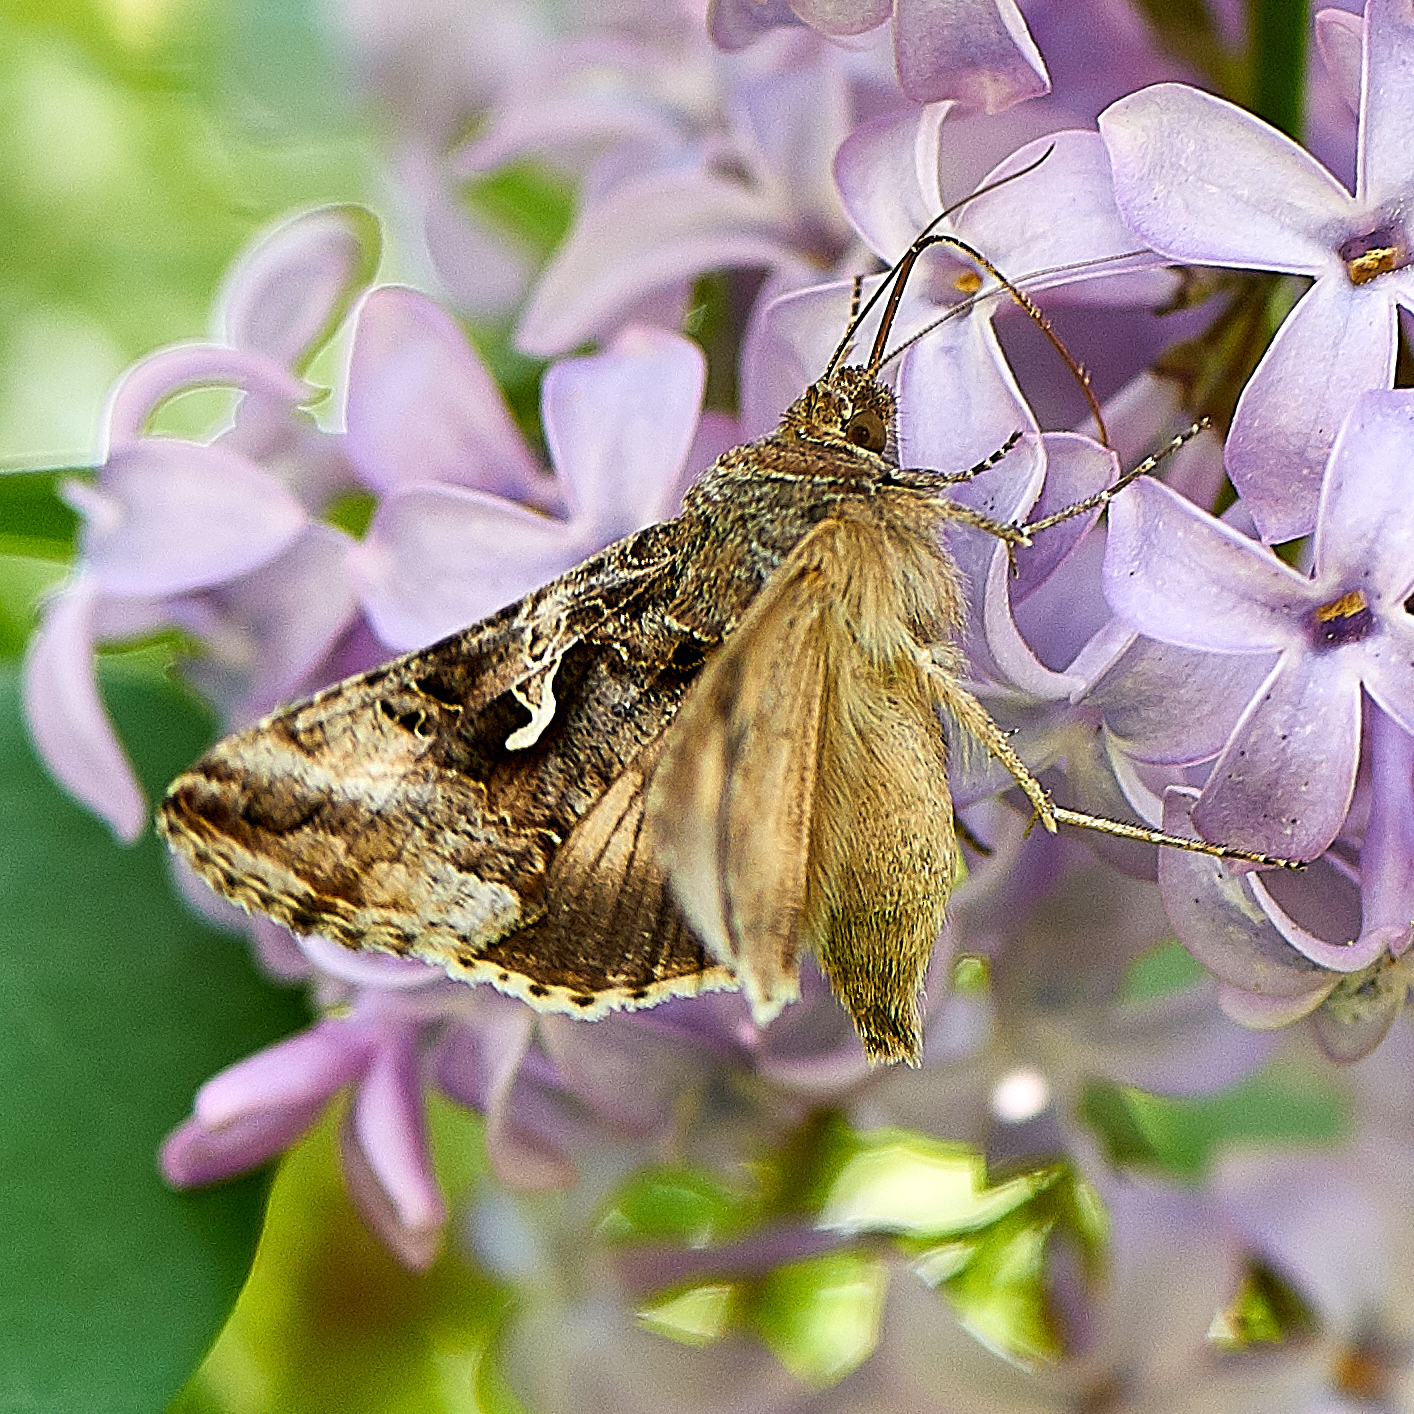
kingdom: Animalia
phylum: Arthropoda
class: Insecta
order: Lepidoptera
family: Noctuidae
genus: Autographa
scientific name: Autographa gamma
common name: Silver y
